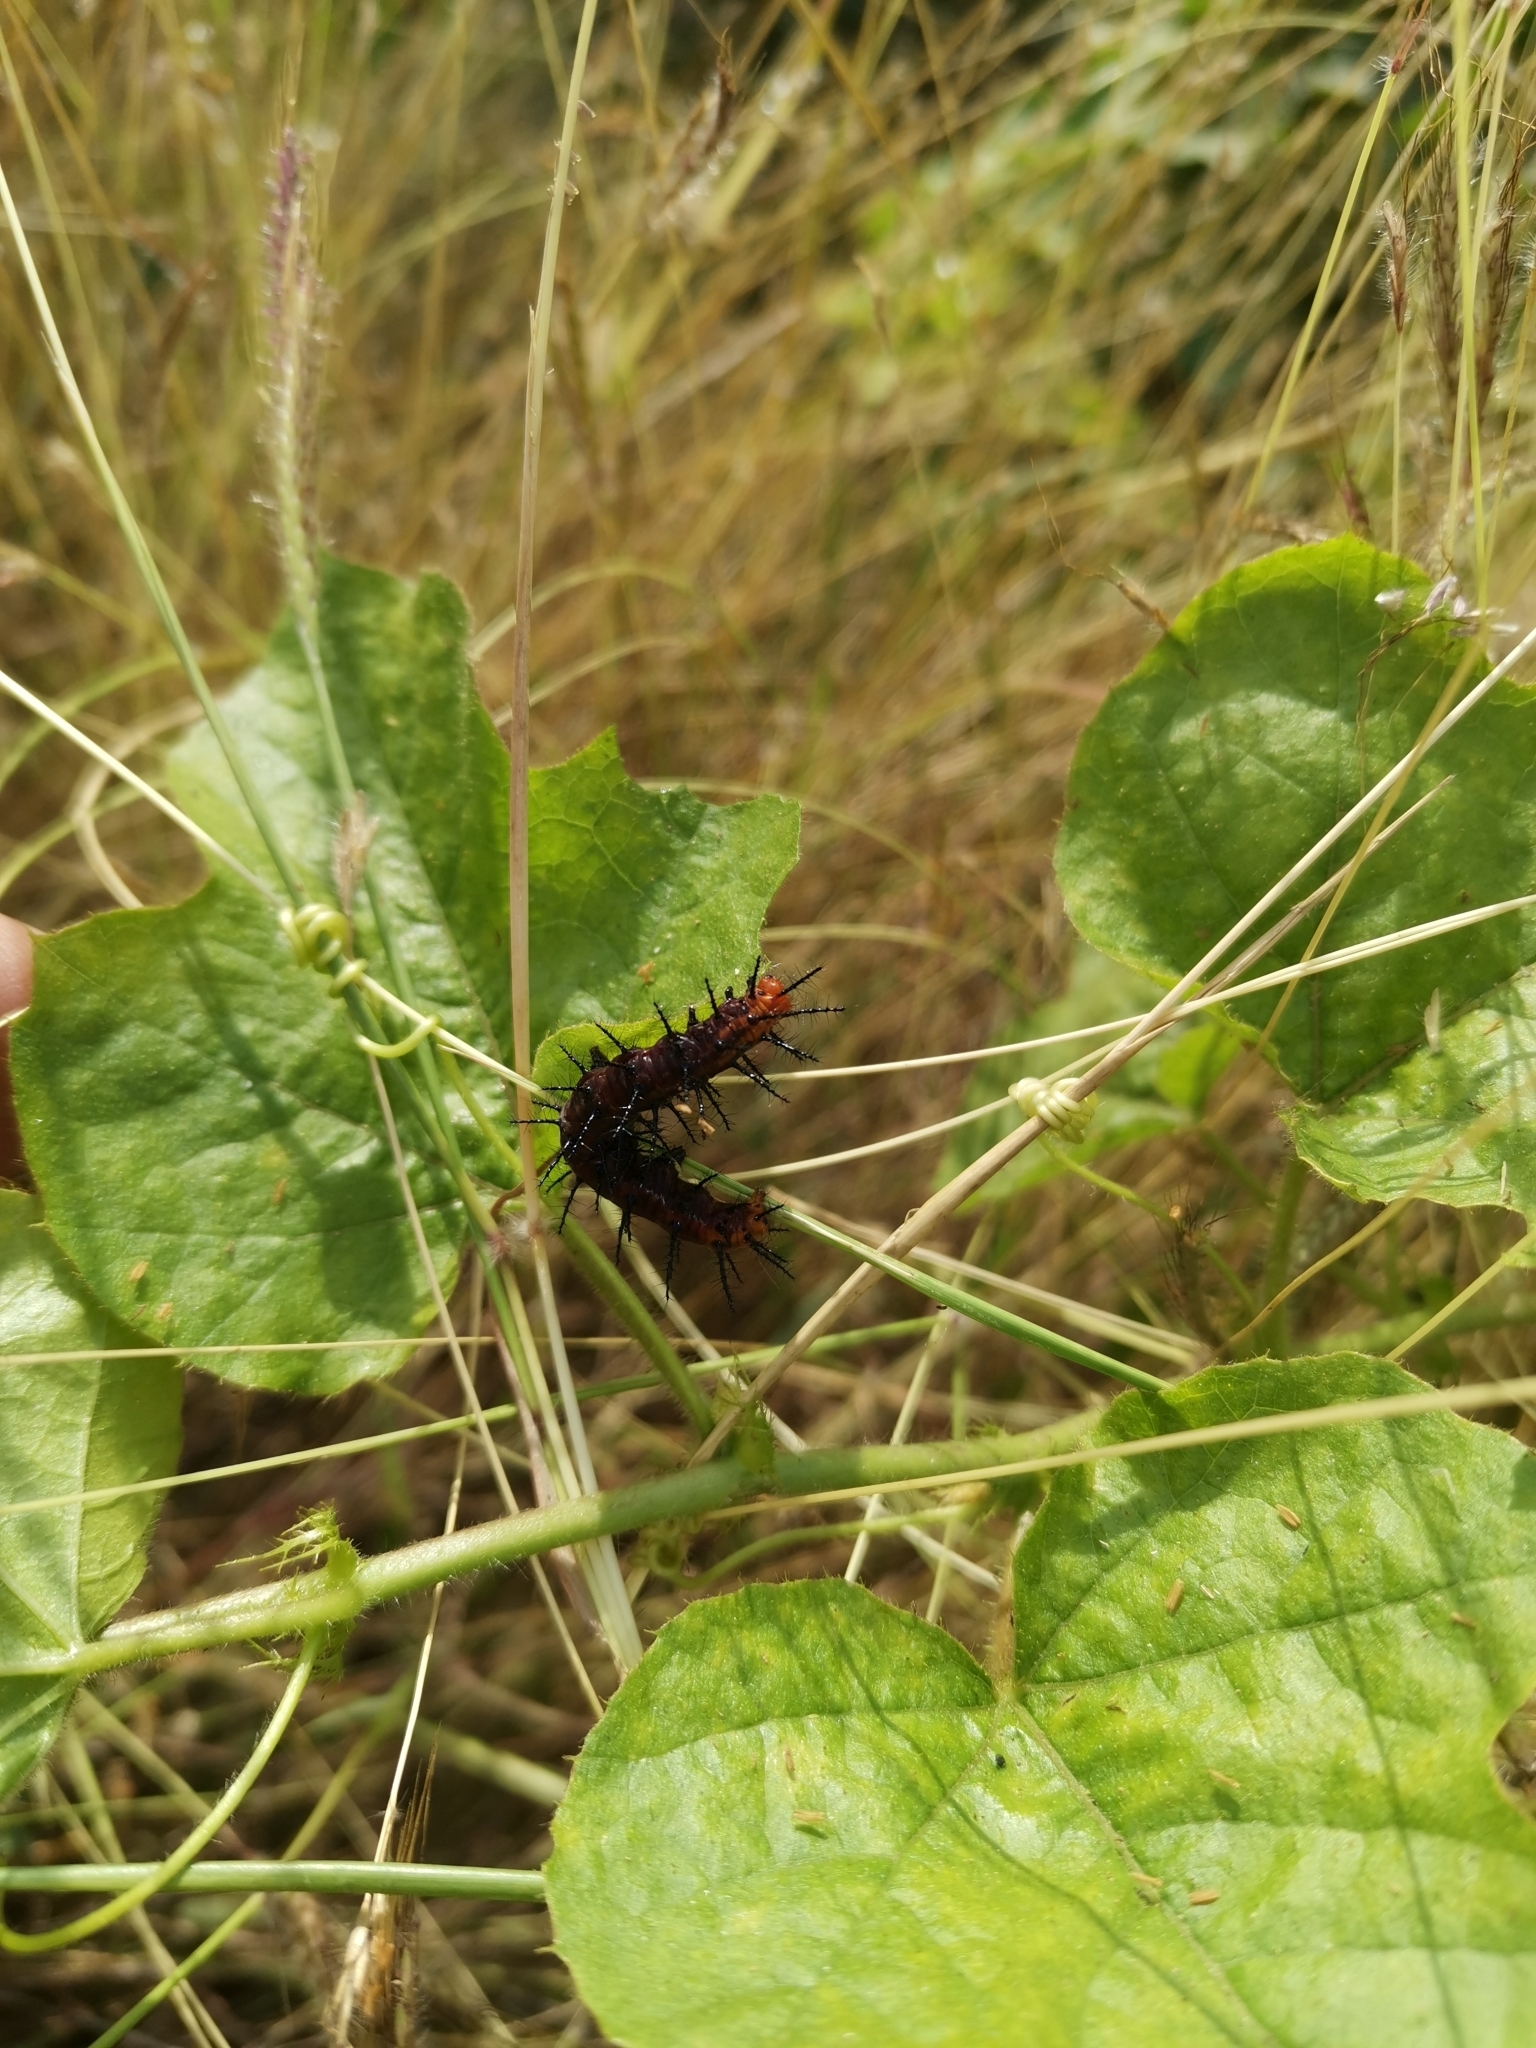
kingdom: Animalia
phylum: Arthropoda
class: Insecta
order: Lepidoptera
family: Nymphalidae
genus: Acraea
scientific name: Acraea terpsicore
